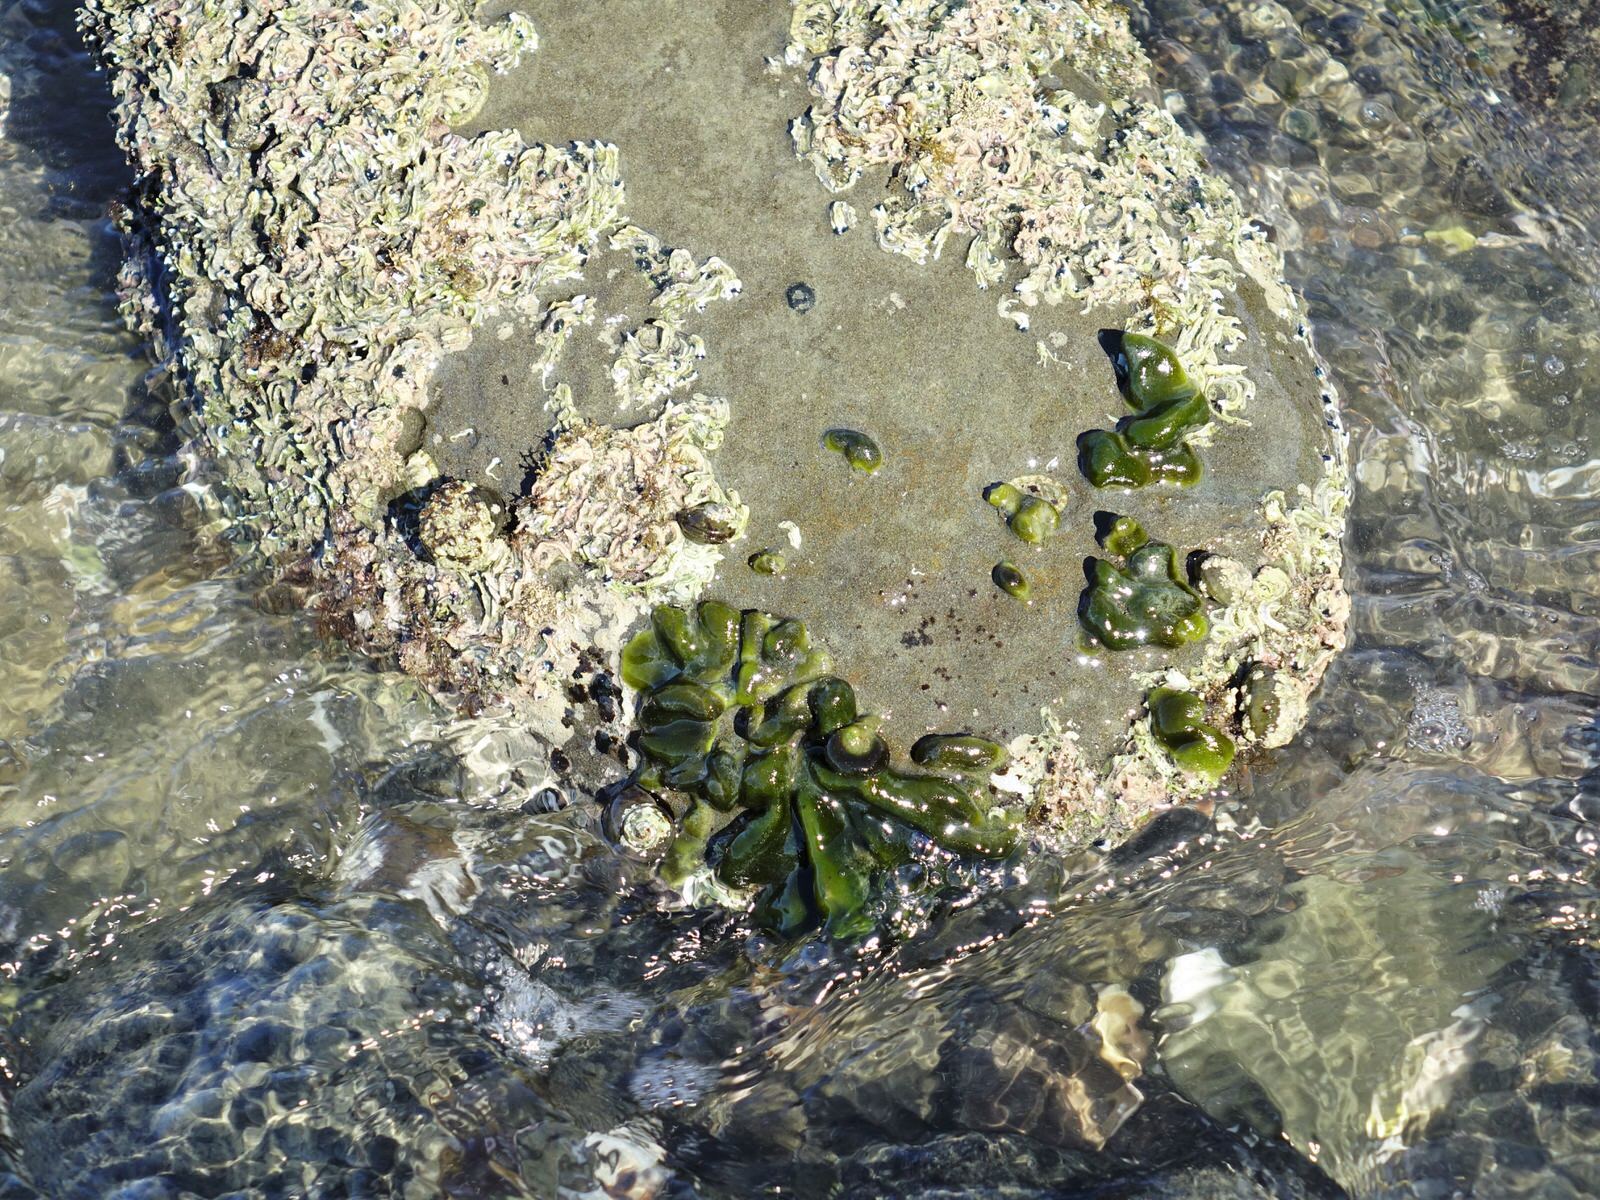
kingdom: Plantae
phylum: Chlorophyta
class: Ulvophyceae
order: Bryopsidales
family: Codiaceae
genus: Codium
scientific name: Codium convolutum
